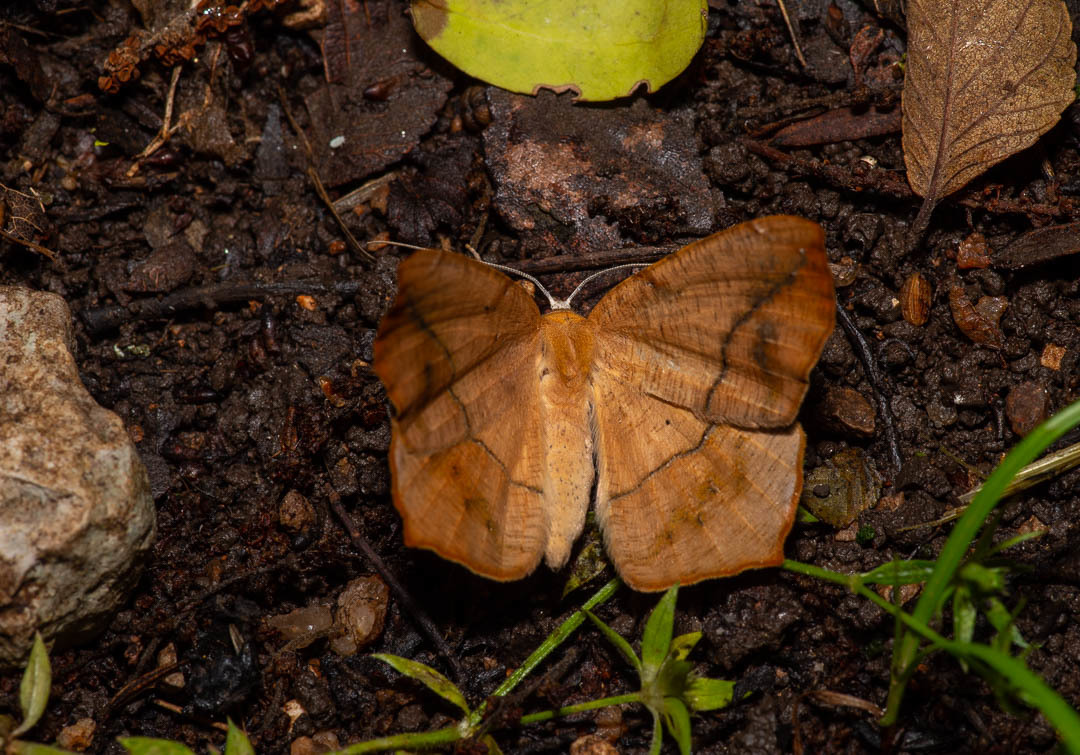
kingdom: Animalia
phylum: Arthropoda
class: Insecta
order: Lepidoptera
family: Geometridae
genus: Prochoerodes
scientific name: Prochoerodes lineola
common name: Large maple spanworm
